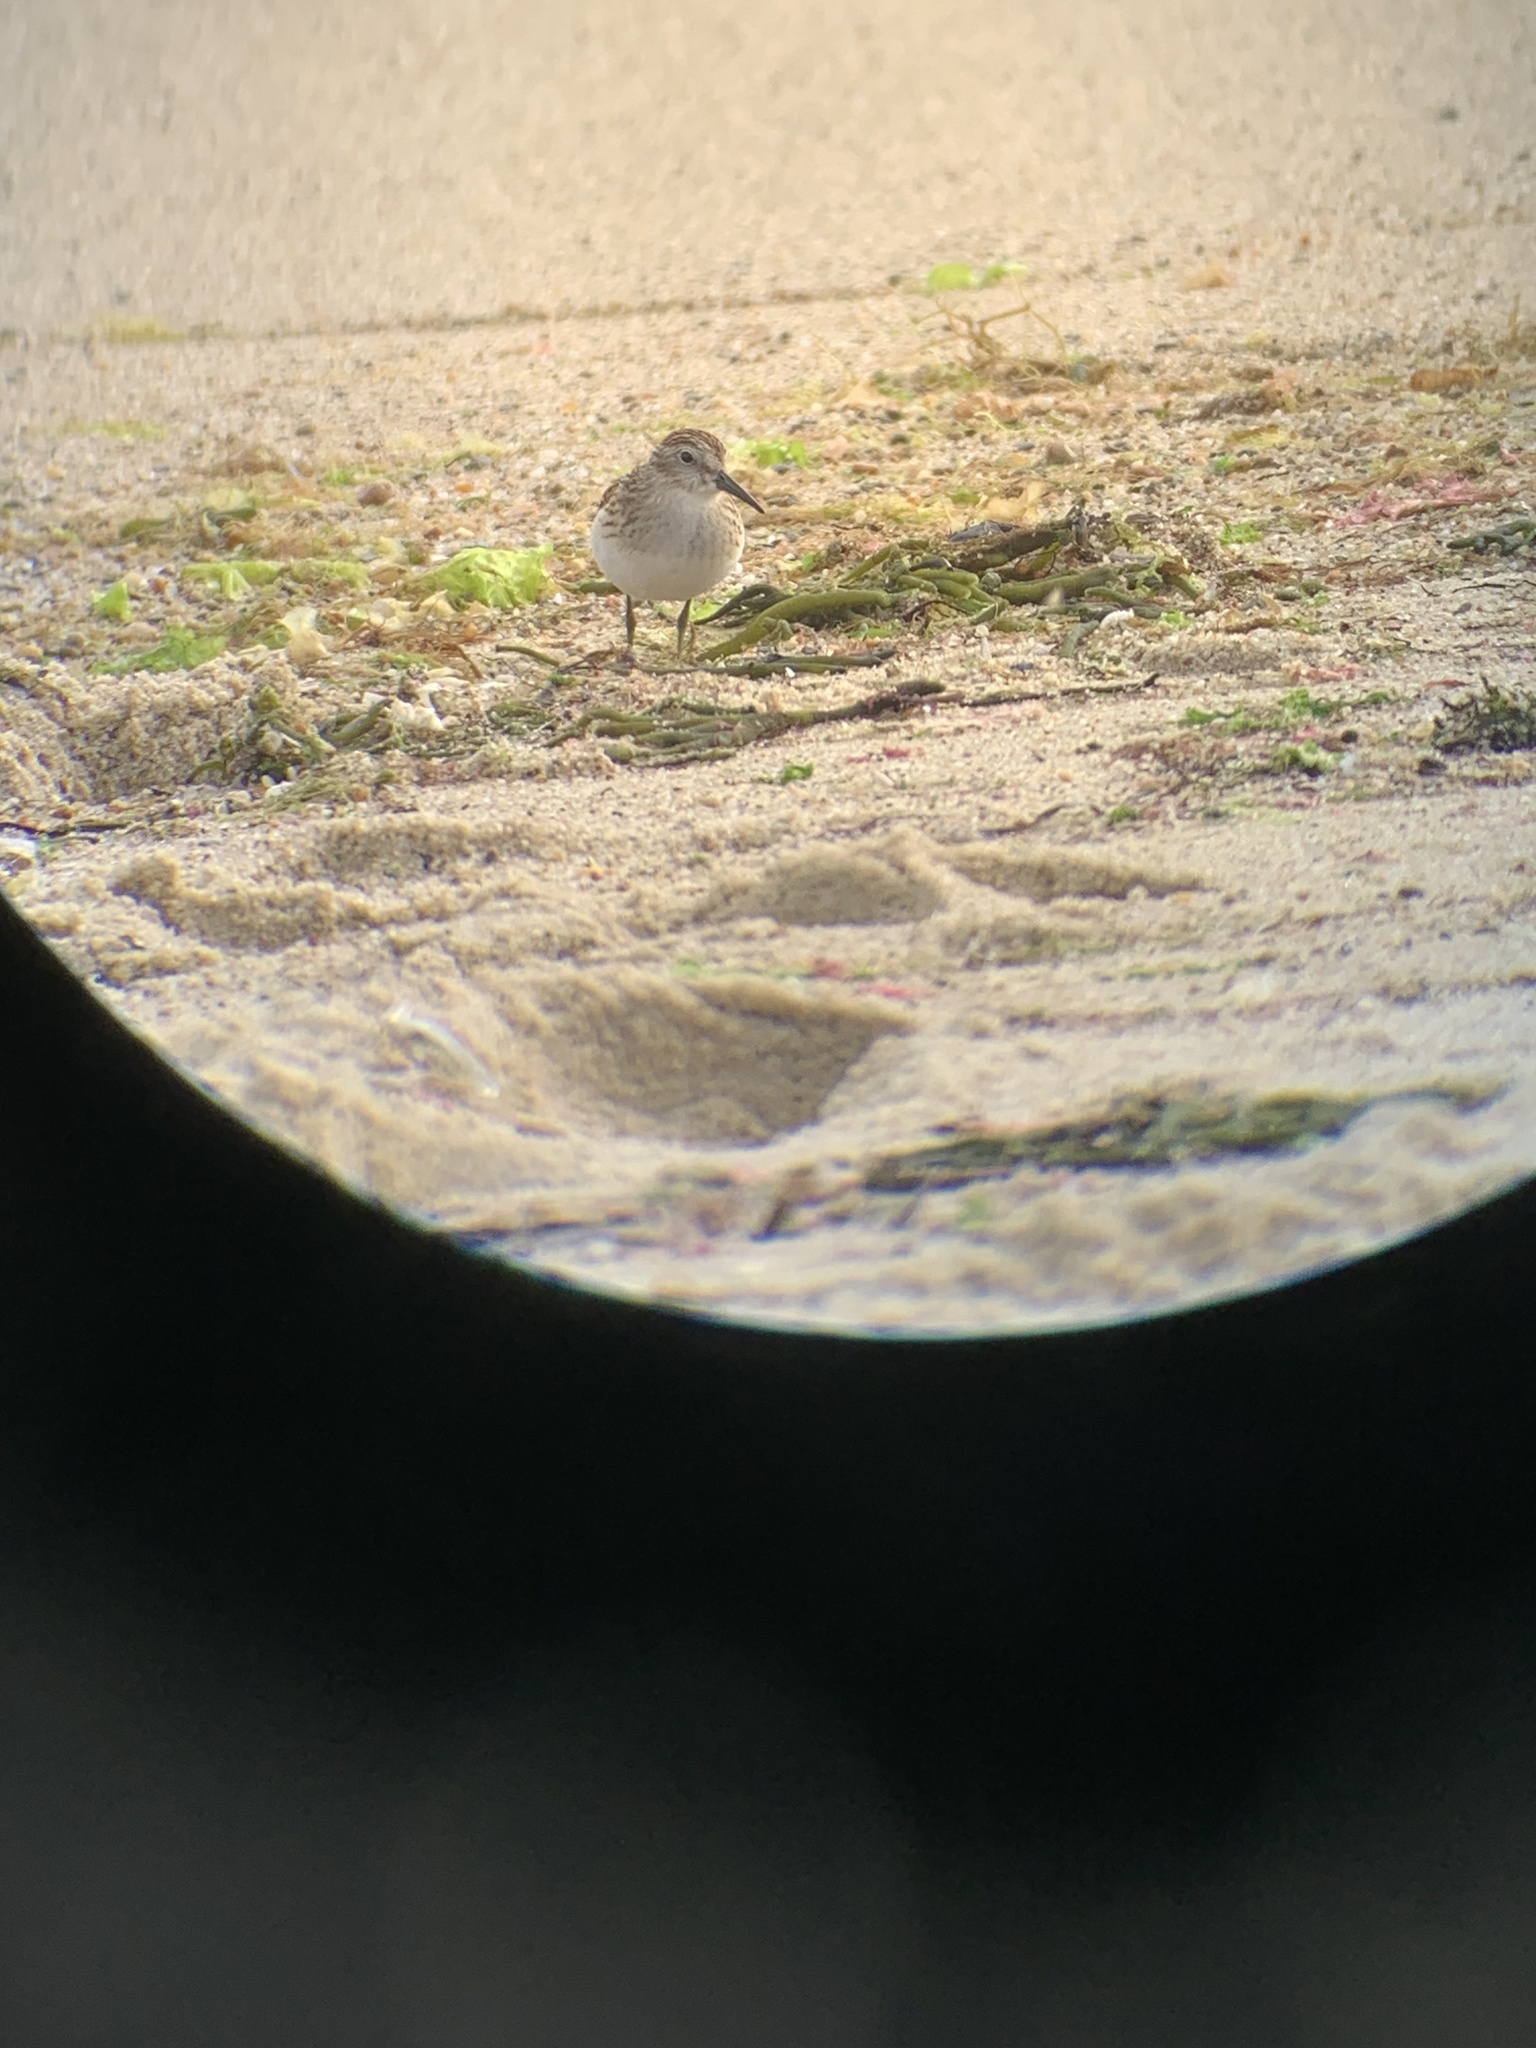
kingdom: Animalia
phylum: Chordata
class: Aves
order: Charadriiformes
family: Scolopacidae
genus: Calidris
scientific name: Calidris minutilla
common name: Least sandpiper
